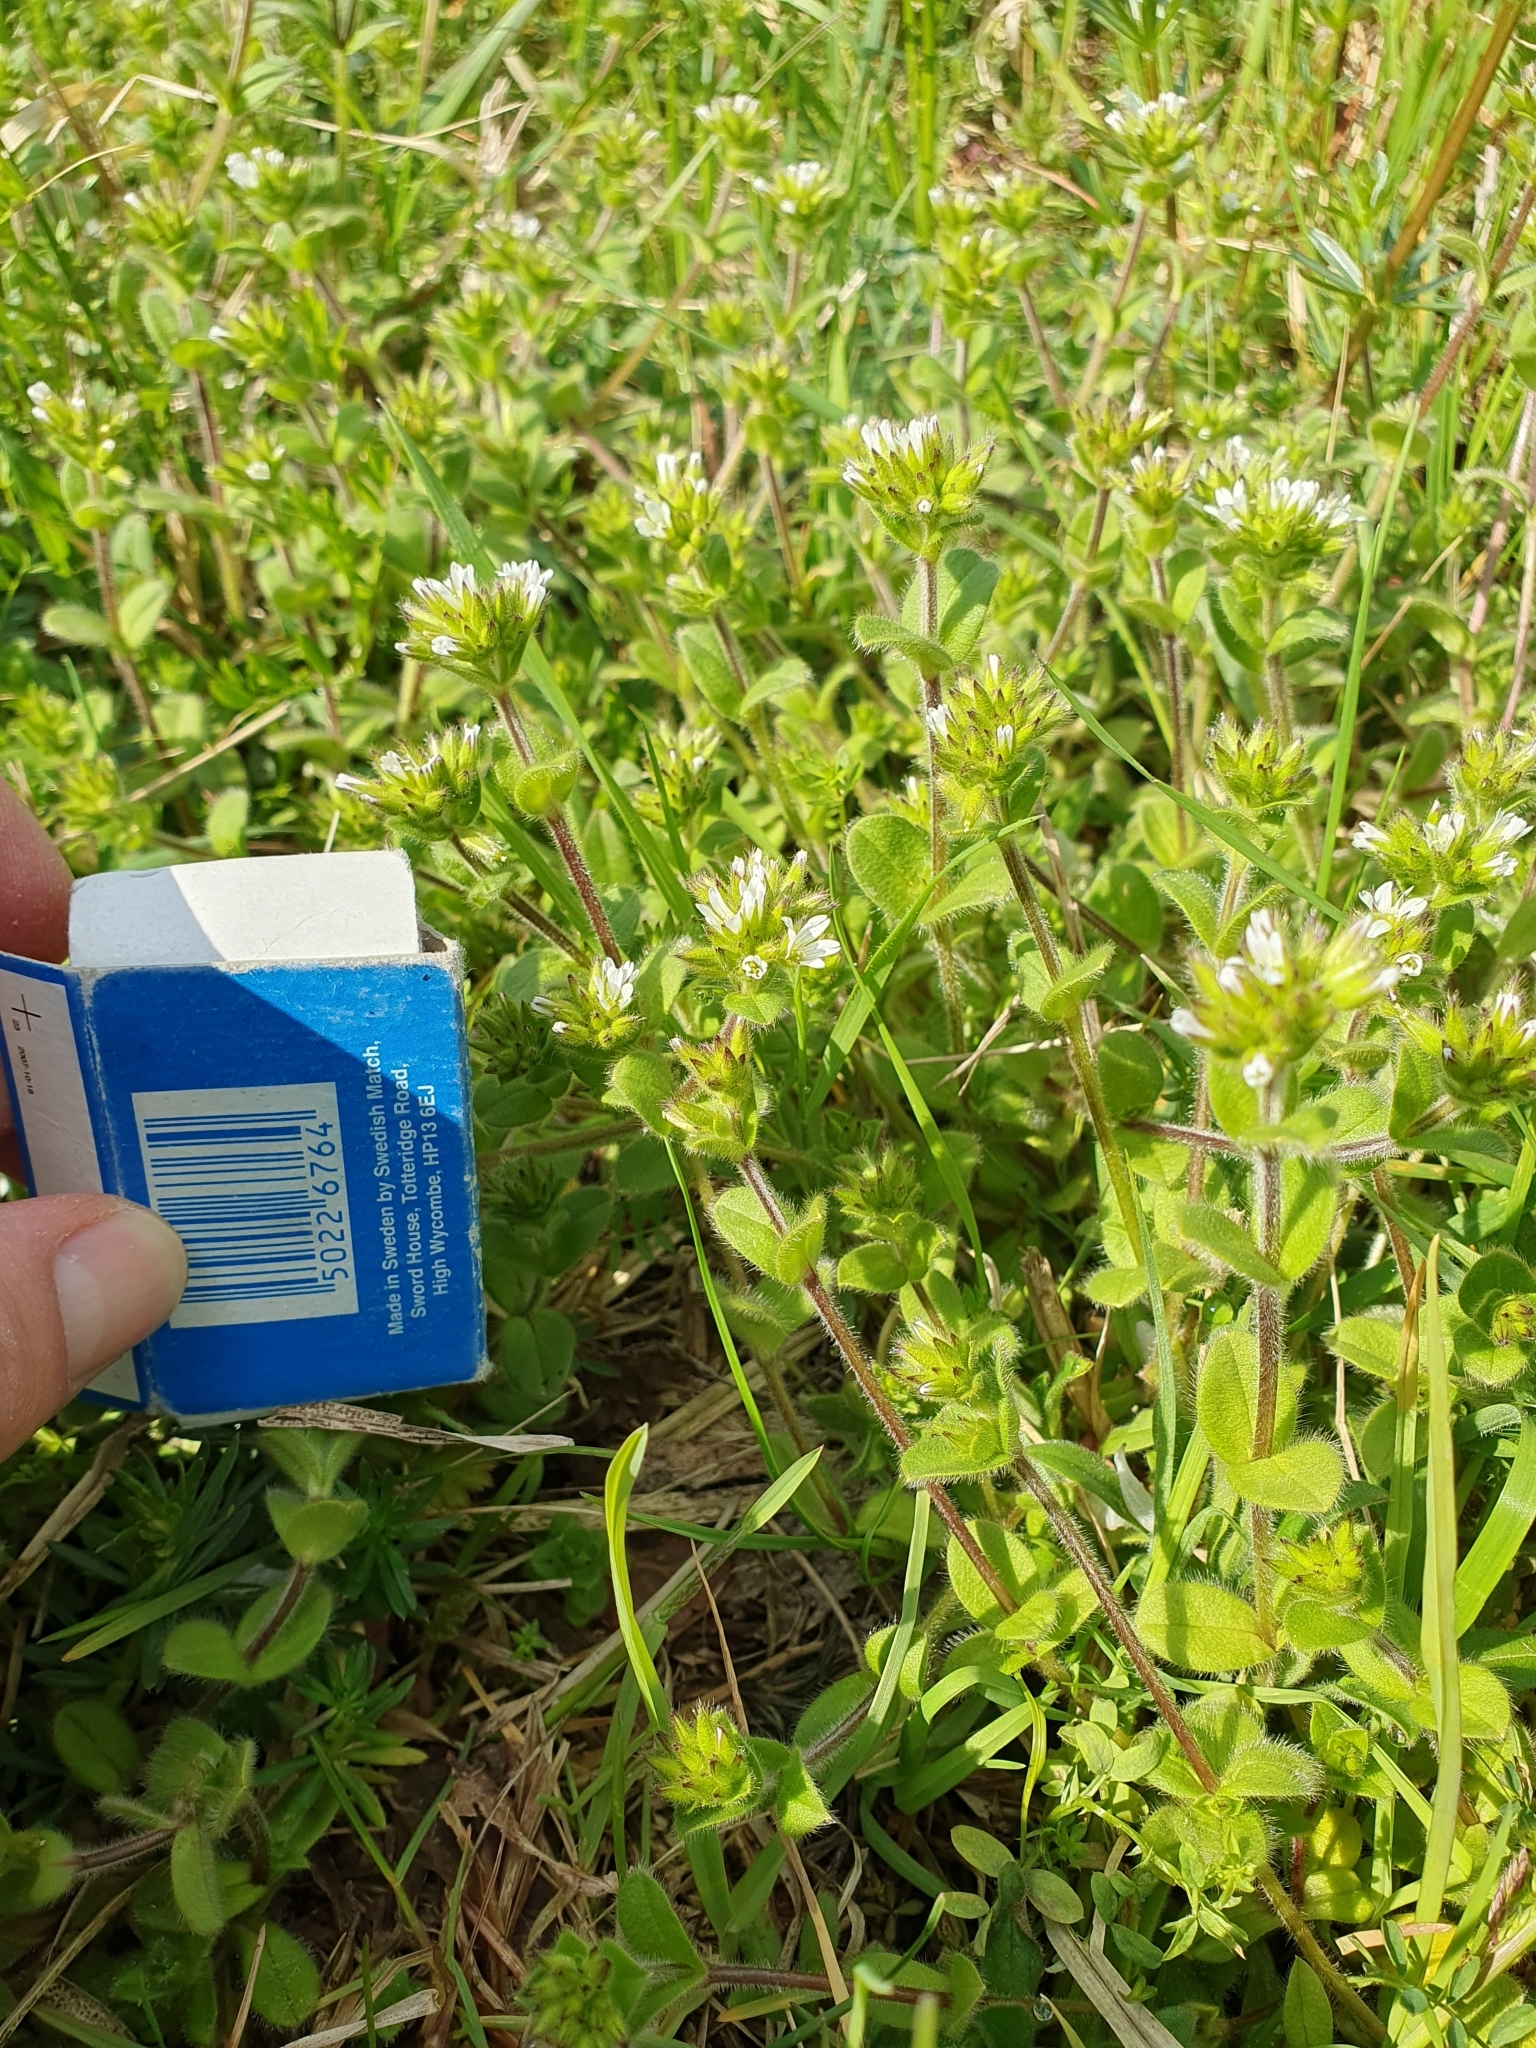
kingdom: Plantae
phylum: Tracheophyta
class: Magnoliopsida
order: Caryophyllales
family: Caryophyllaceae
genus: Cerastium
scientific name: Cerastium glomeratum
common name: Sticky chickweed
